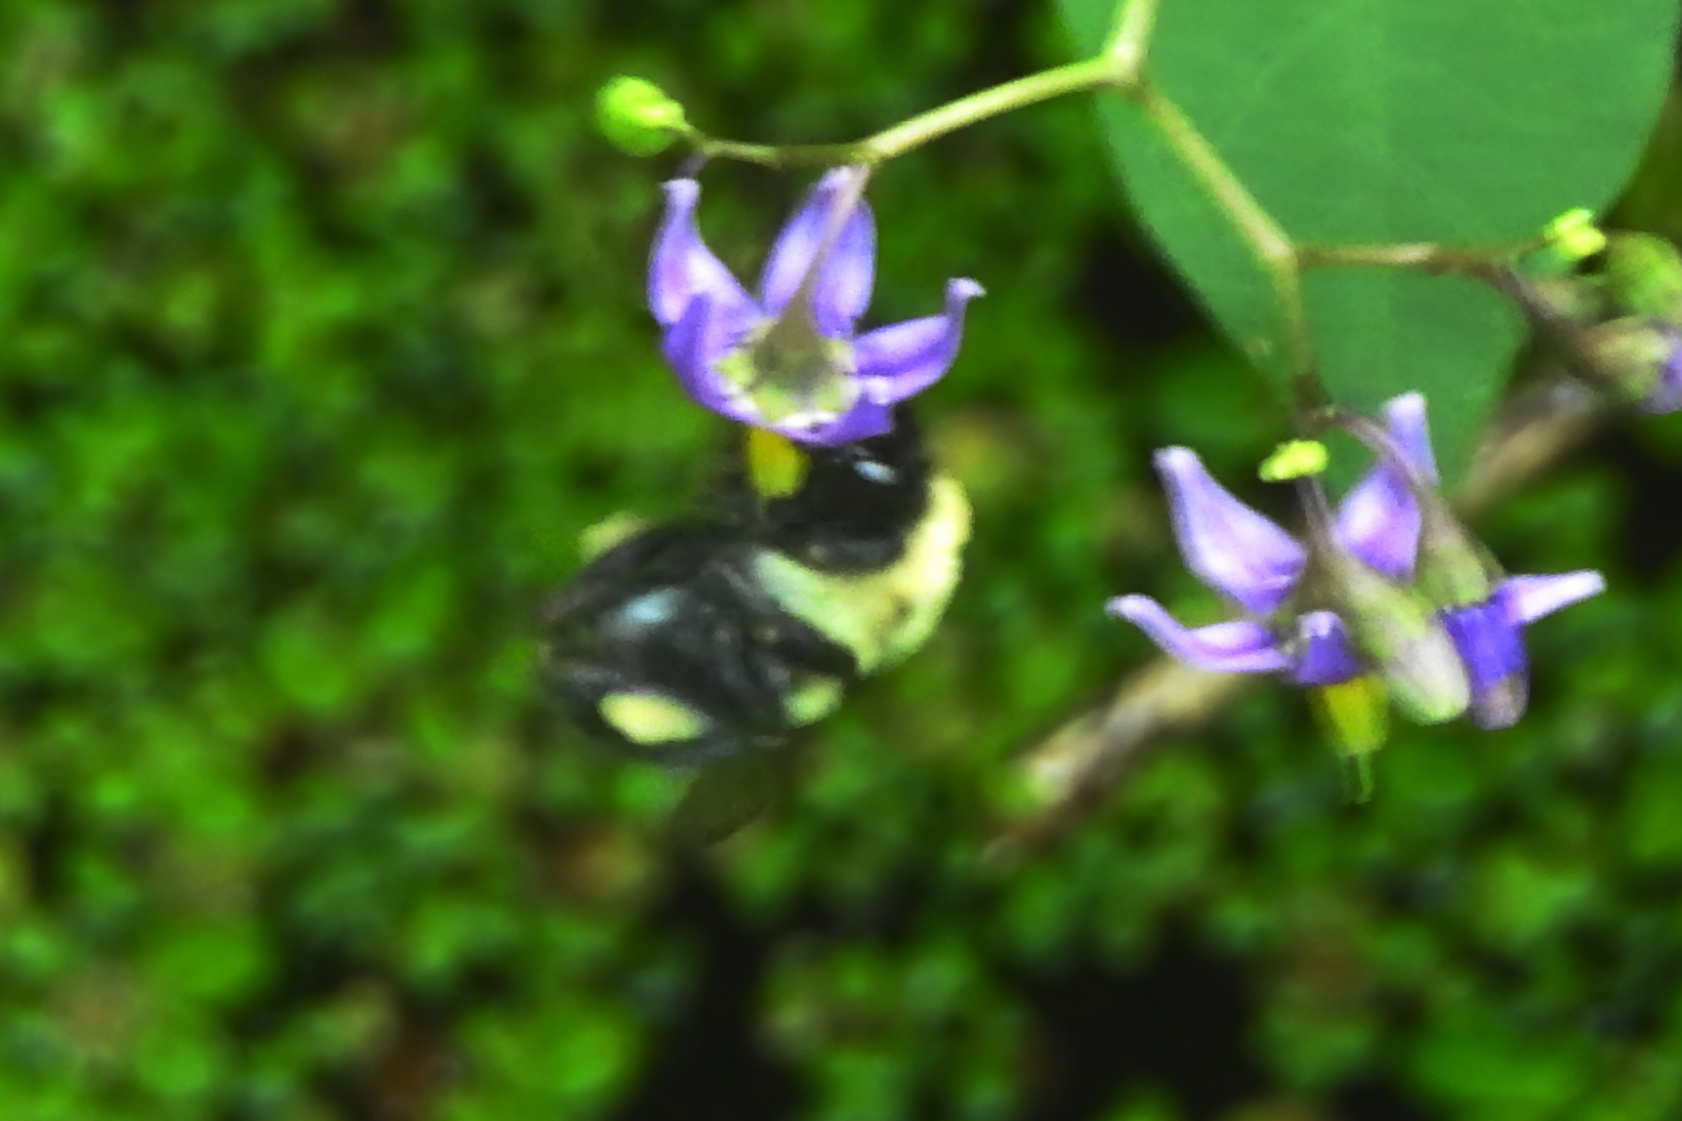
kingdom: Animalia
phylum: Arthropoda
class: Insecta
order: Hymenoptera
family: Apidae
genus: Bombus
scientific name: Bombus
